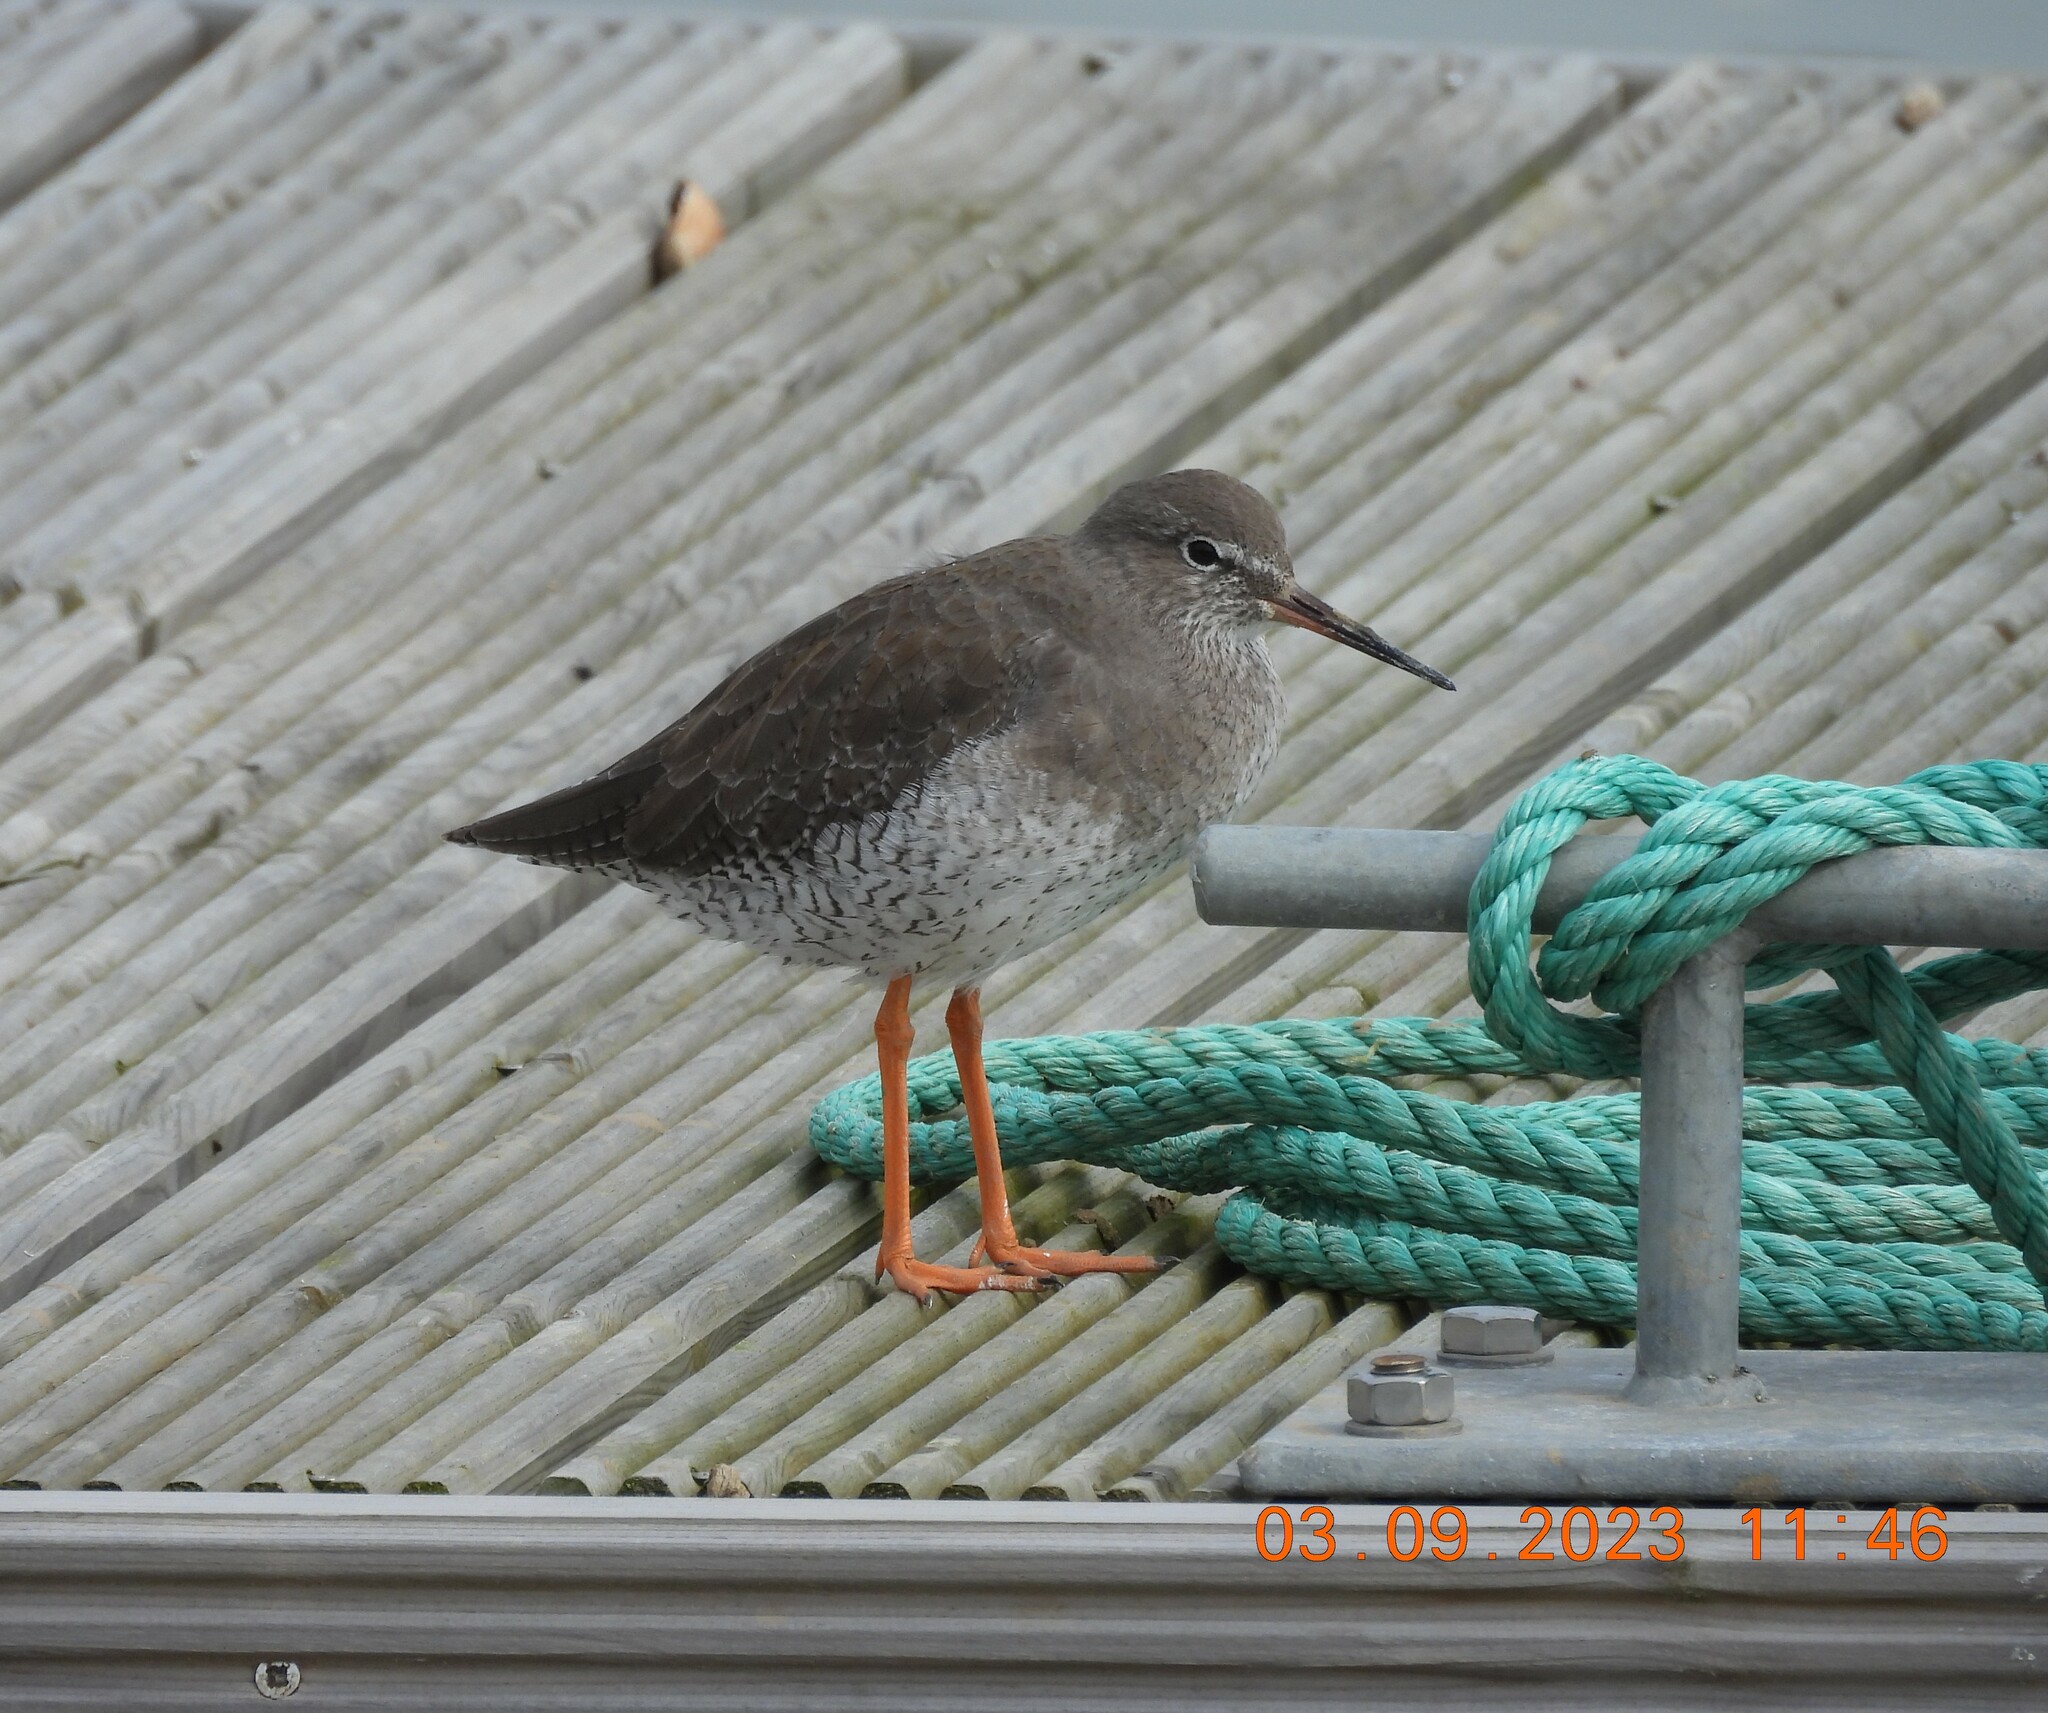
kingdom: Animalia
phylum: Chordata
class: Aves
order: Charadriiformes
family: Scolopacidae
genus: Tringa
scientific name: Tringa totanus
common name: Common redshank
